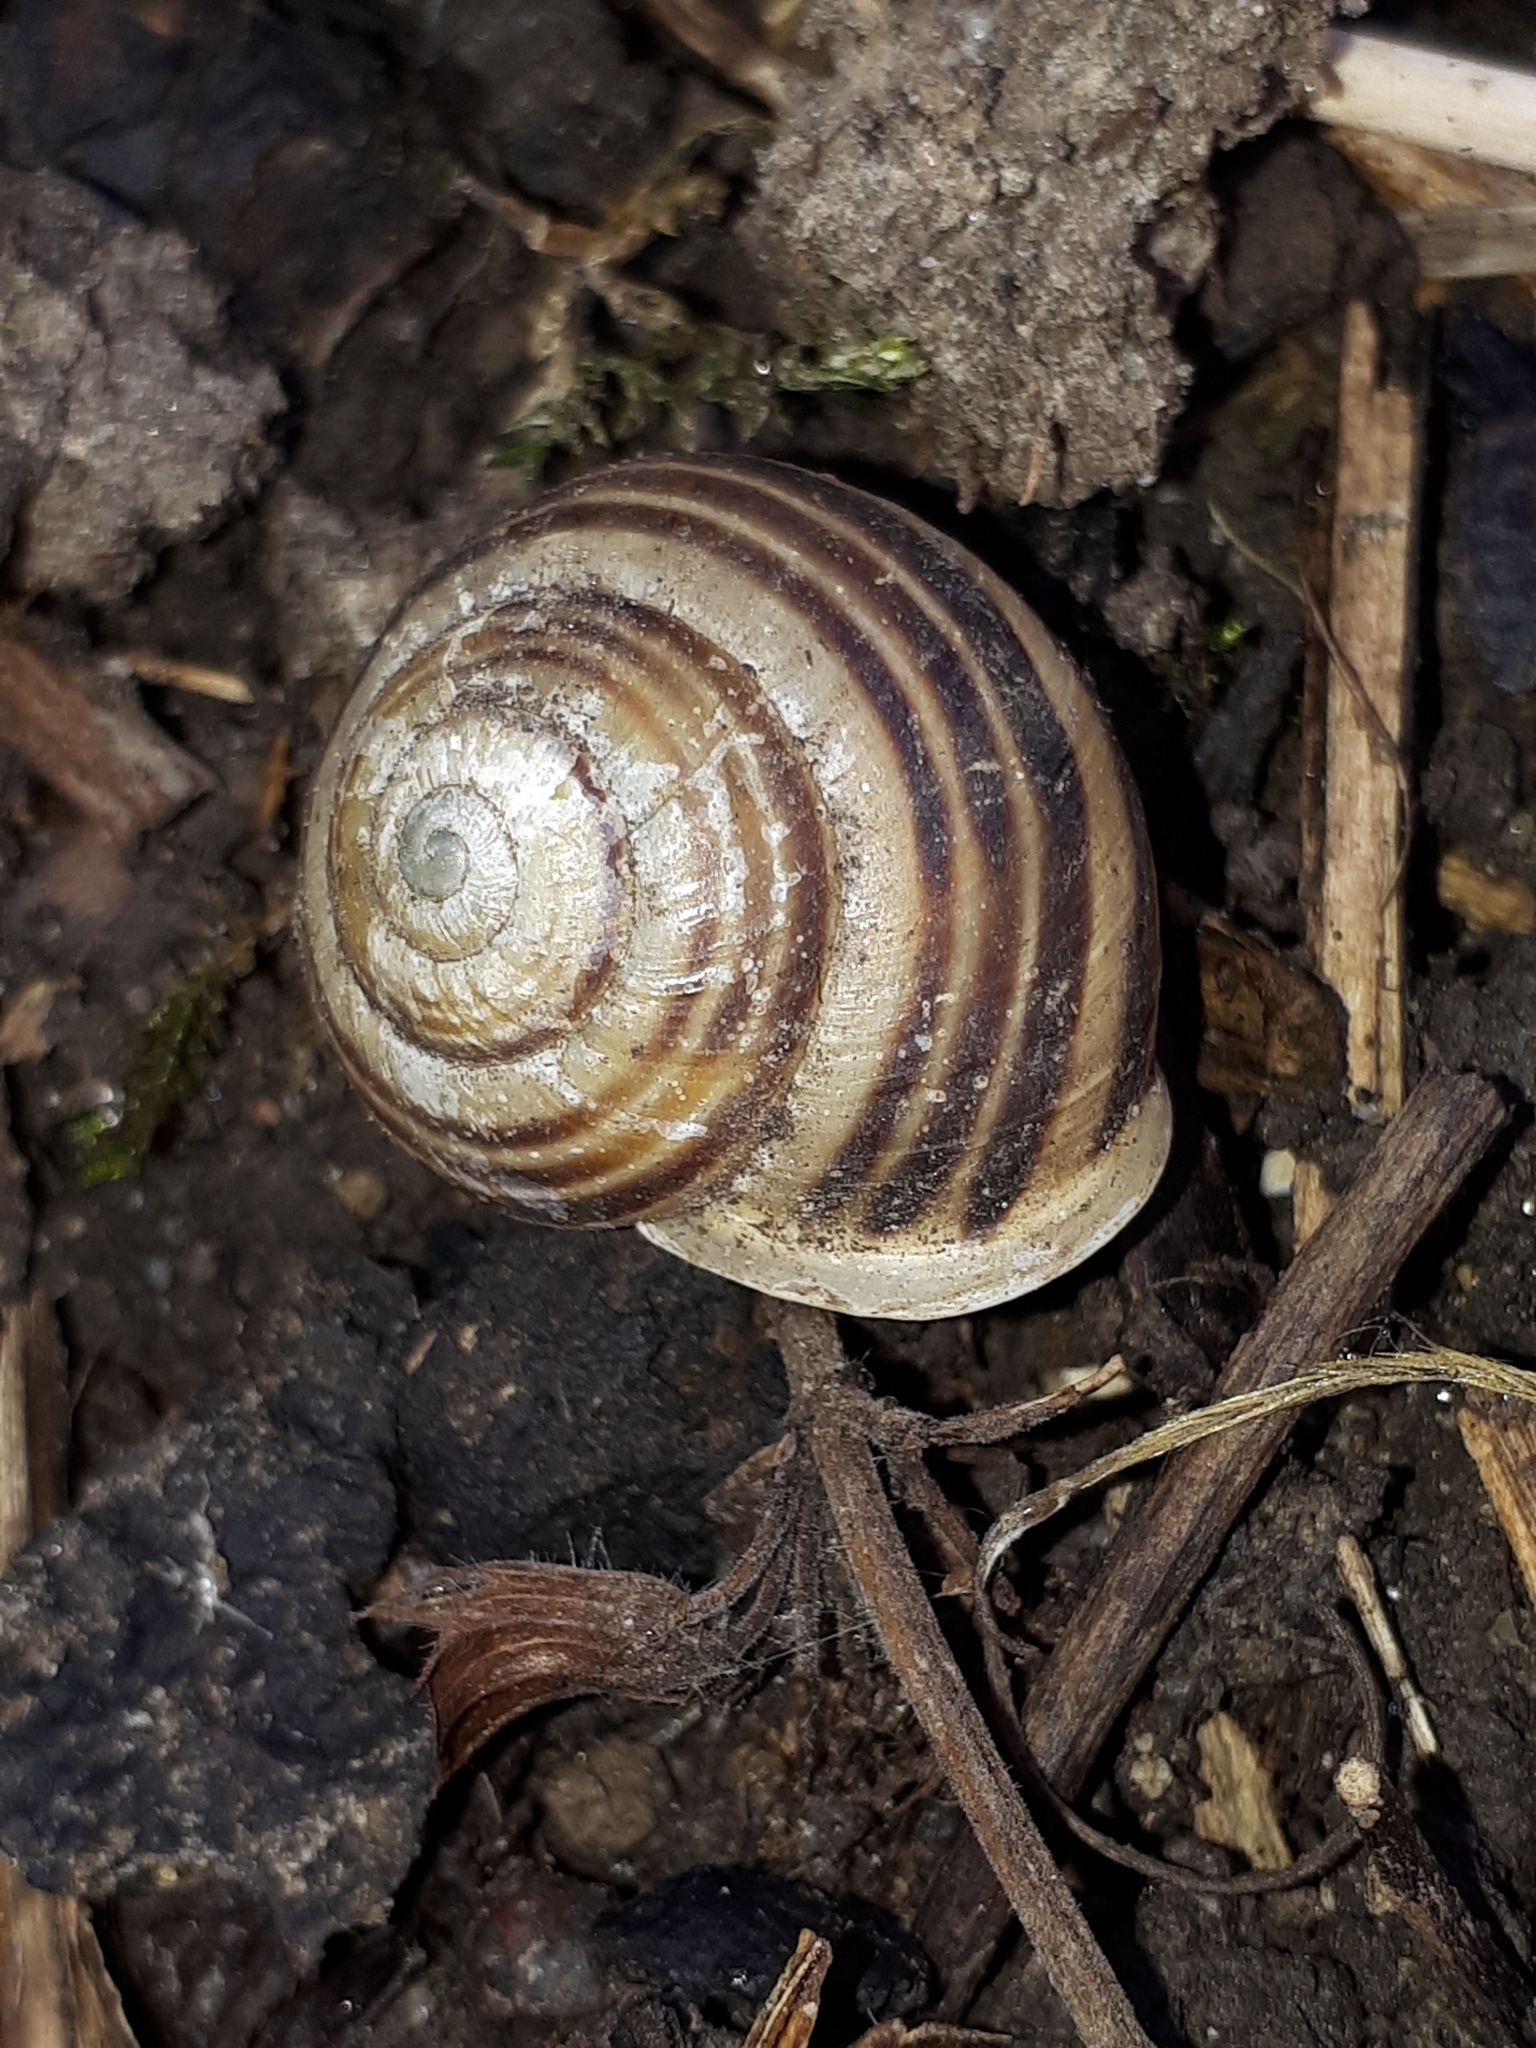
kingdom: Animalia
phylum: Mollusca
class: Gastropoda
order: Stylommatophora
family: Helicidae
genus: Cepaea
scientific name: Cepaea hortensis
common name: White-lip gardensnail
